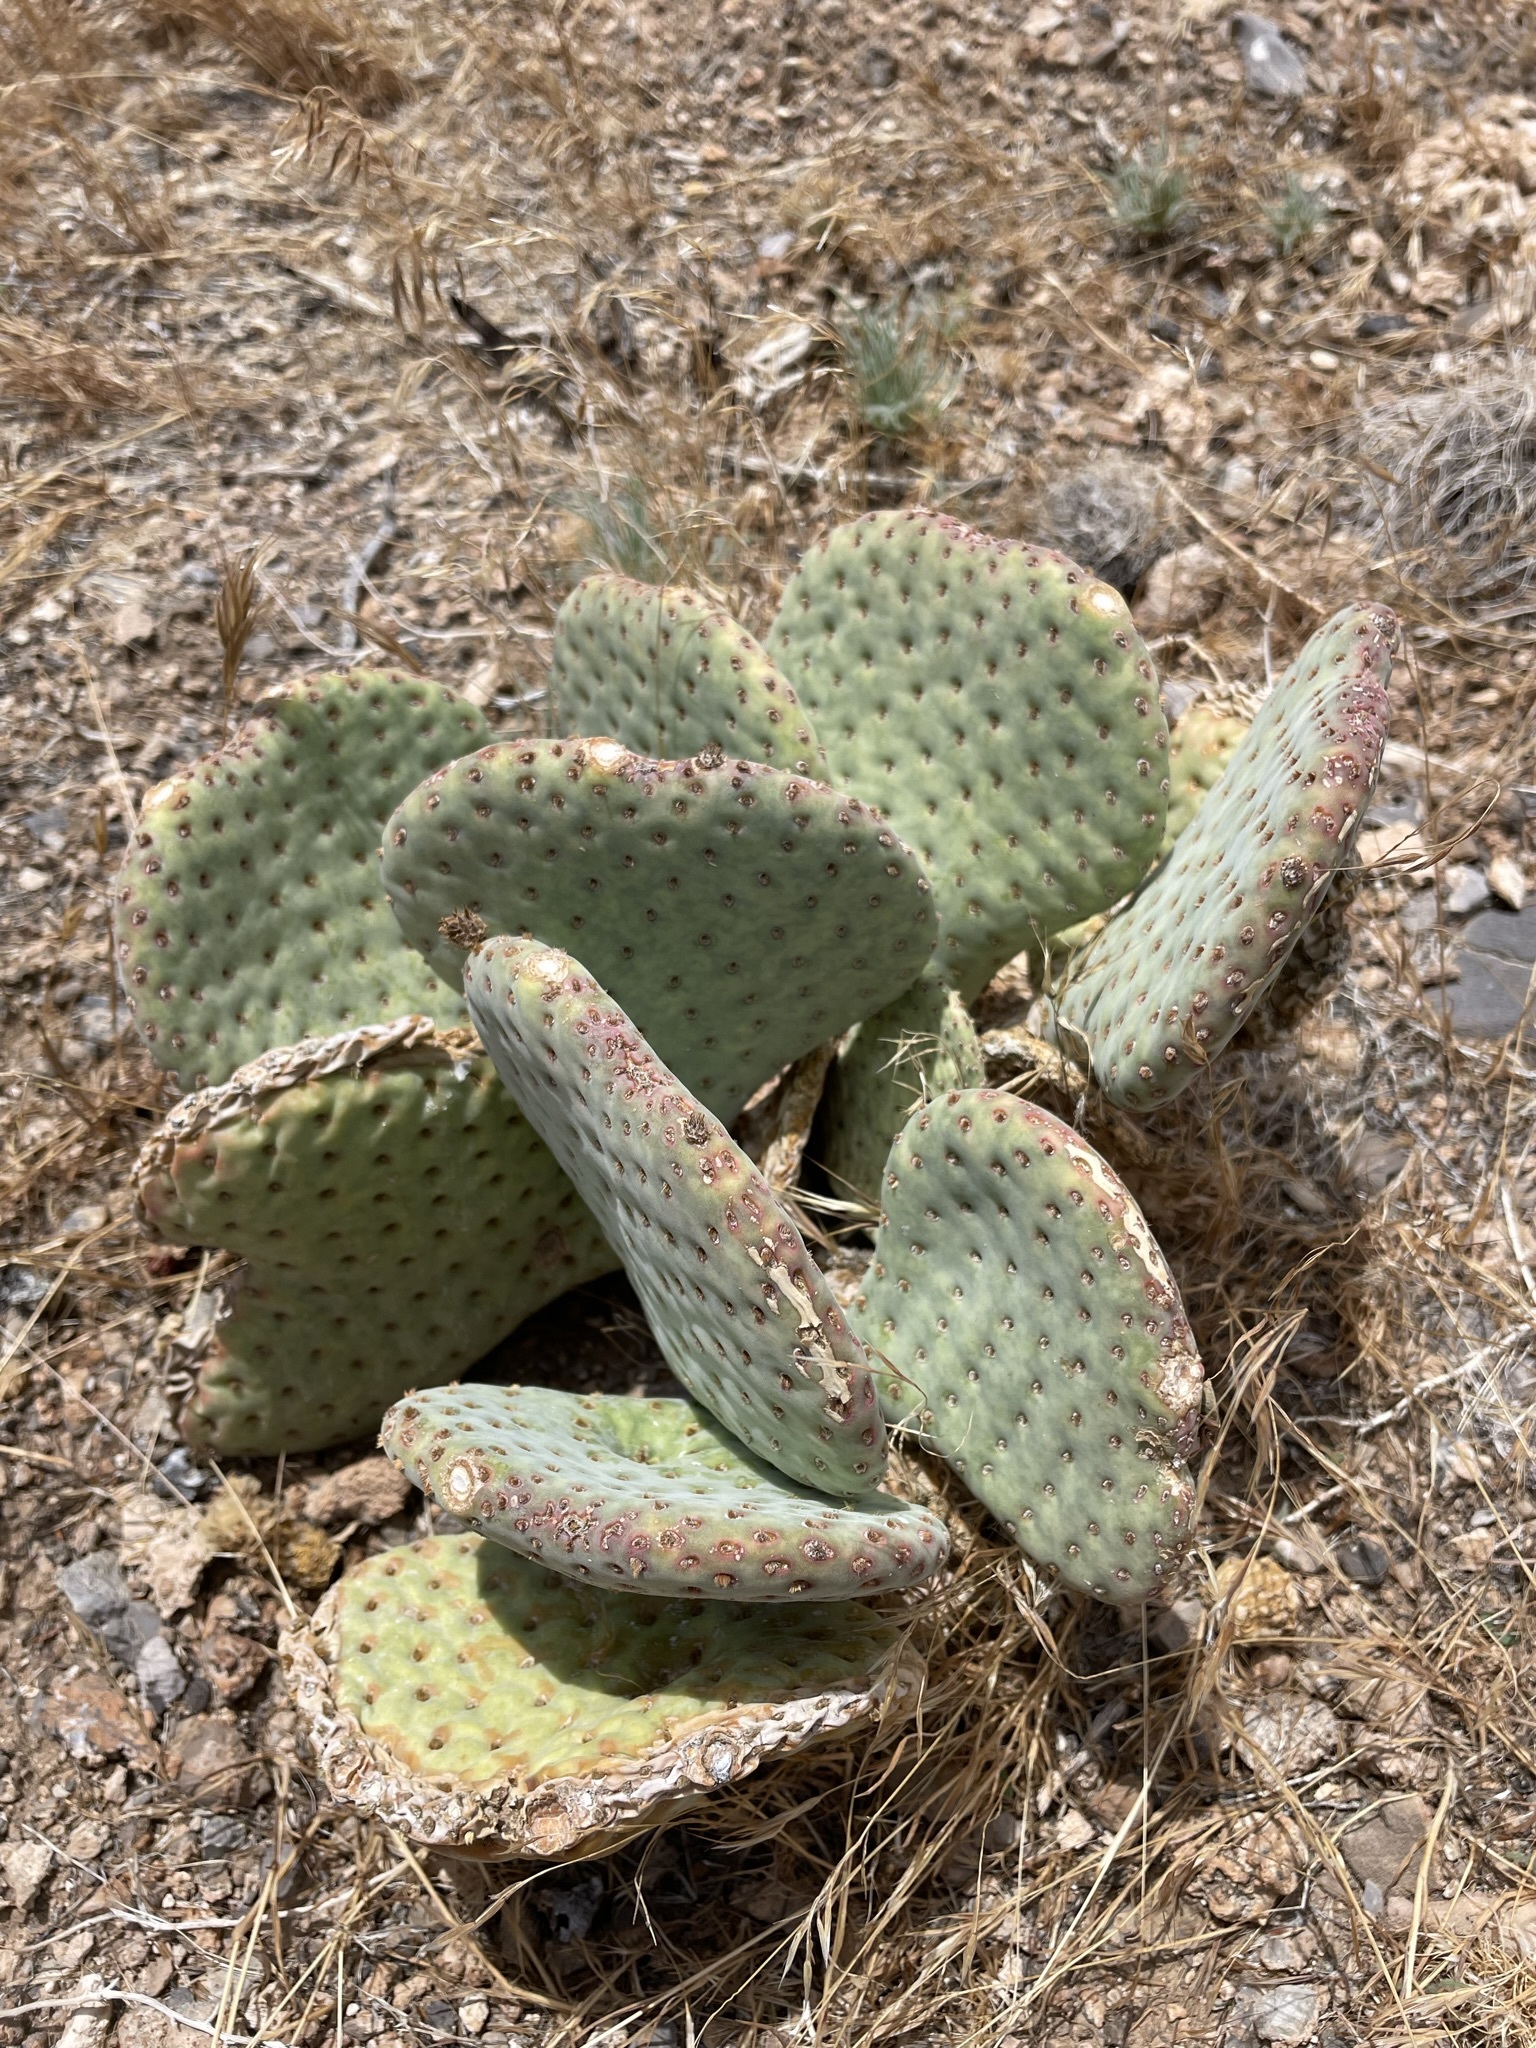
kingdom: Plantae
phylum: Tracheophyta
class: Magnoliopsida
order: Caryophyllales
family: Cactaceae
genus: Opuntia
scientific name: Opuntia basilaris
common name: Beavertail prickly-pear
